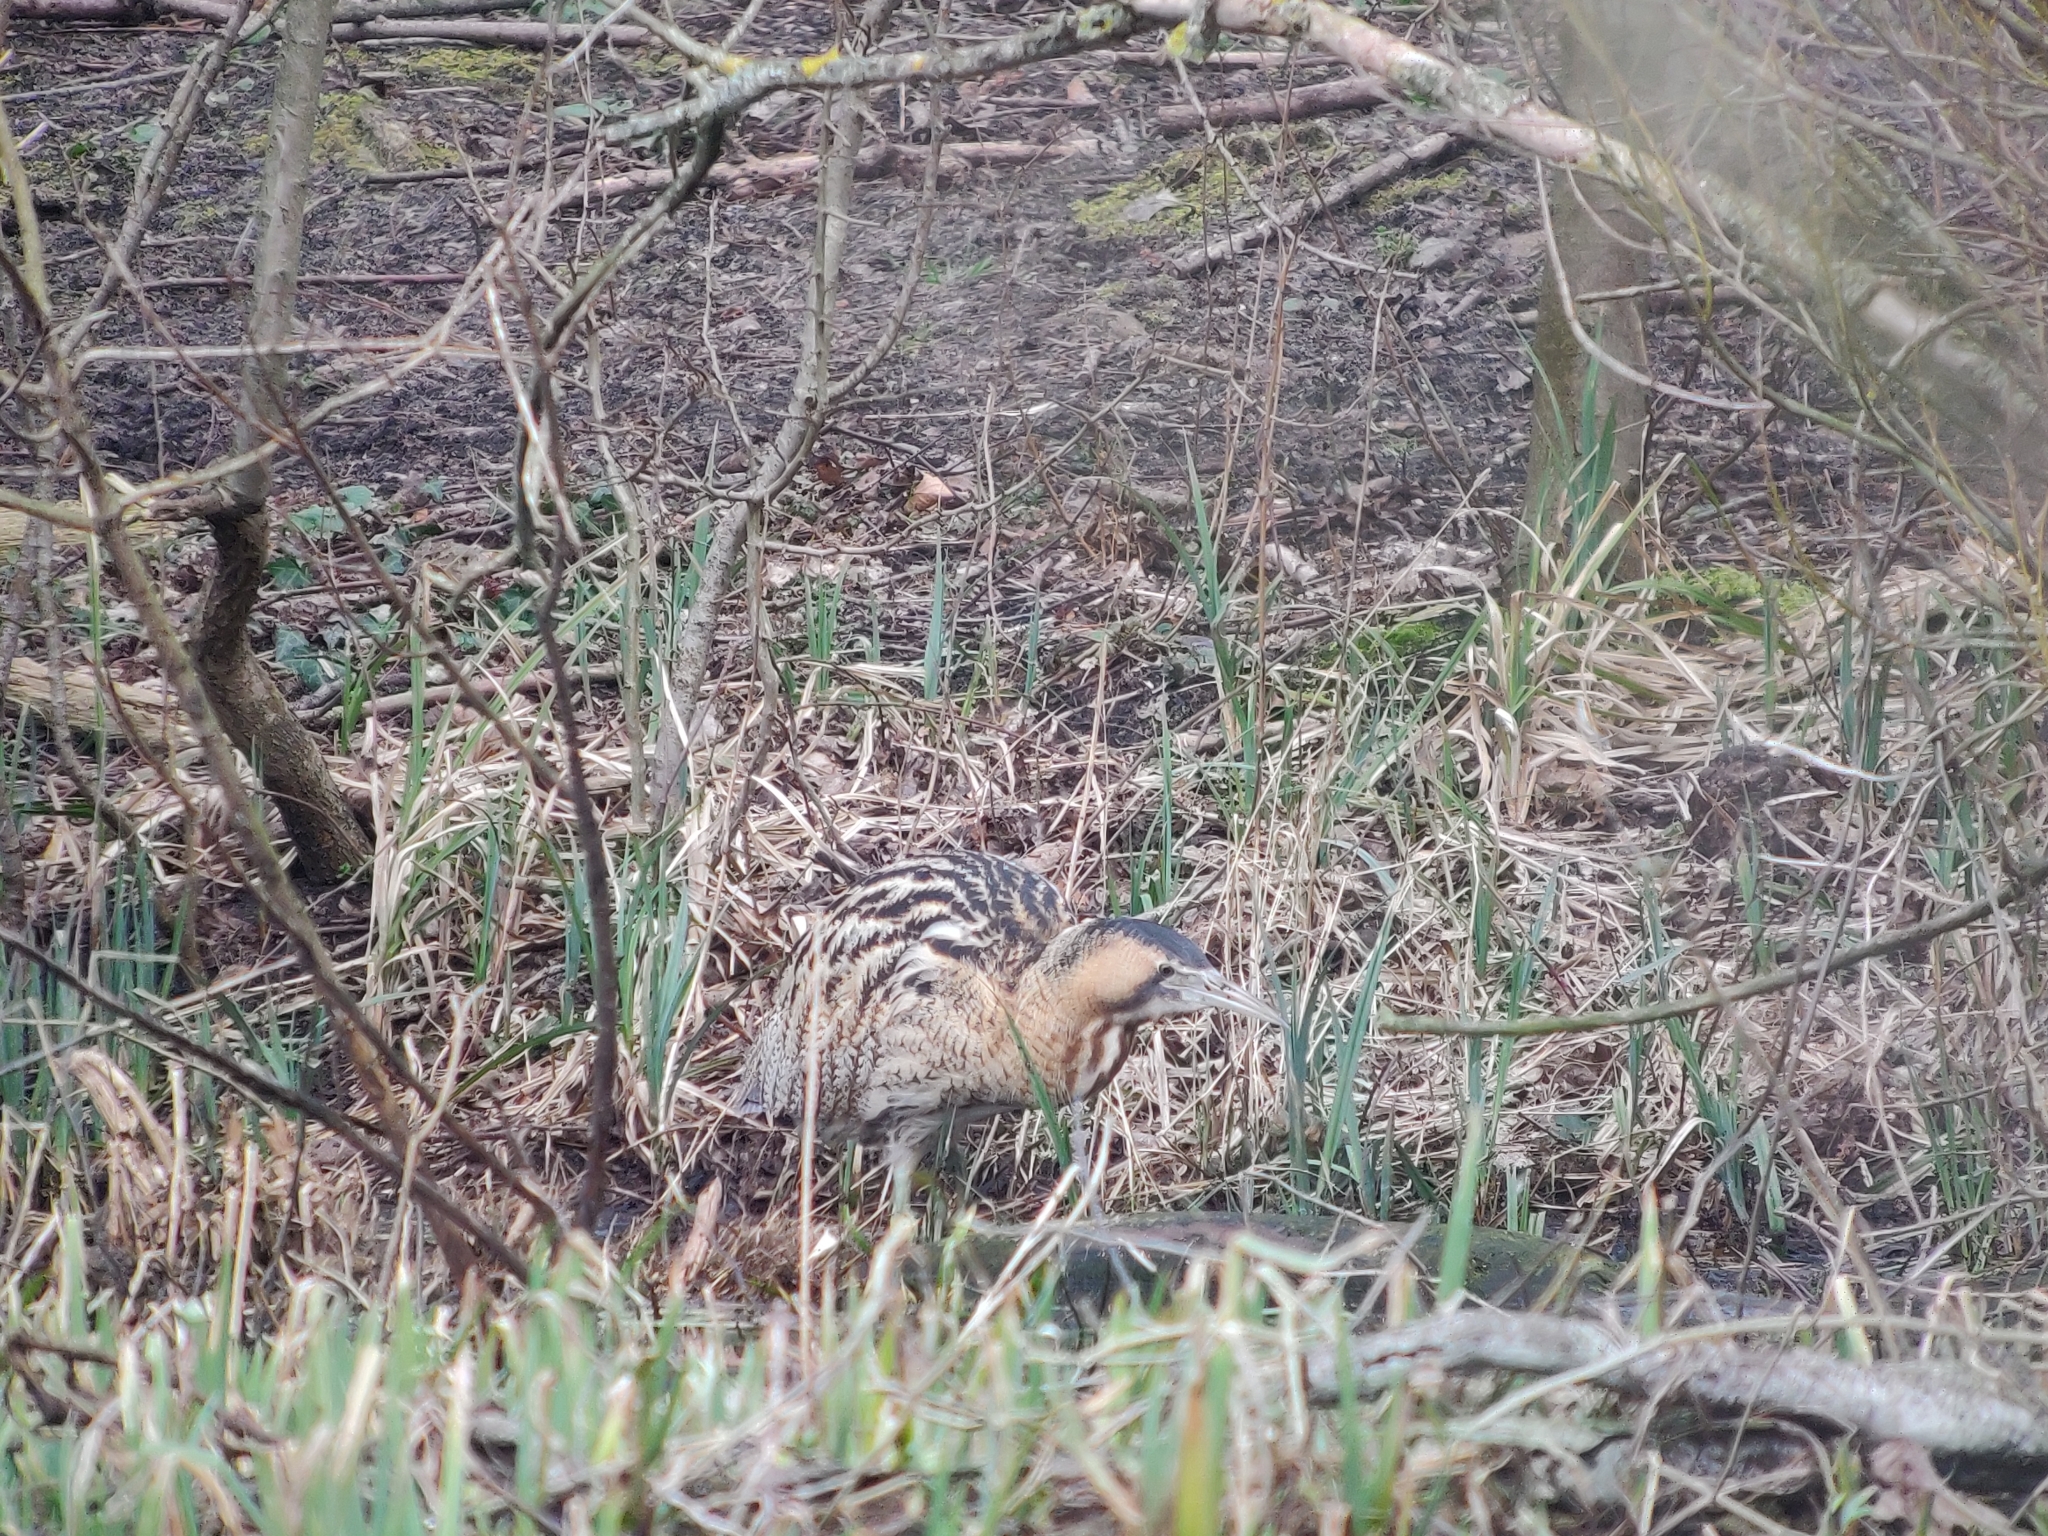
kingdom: Animalia
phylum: Chordata
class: Aves
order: Pelecaniformes
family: Ardeidae
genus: Botaurus
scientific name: Botaurus stellaris
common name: Eurasian bittern
